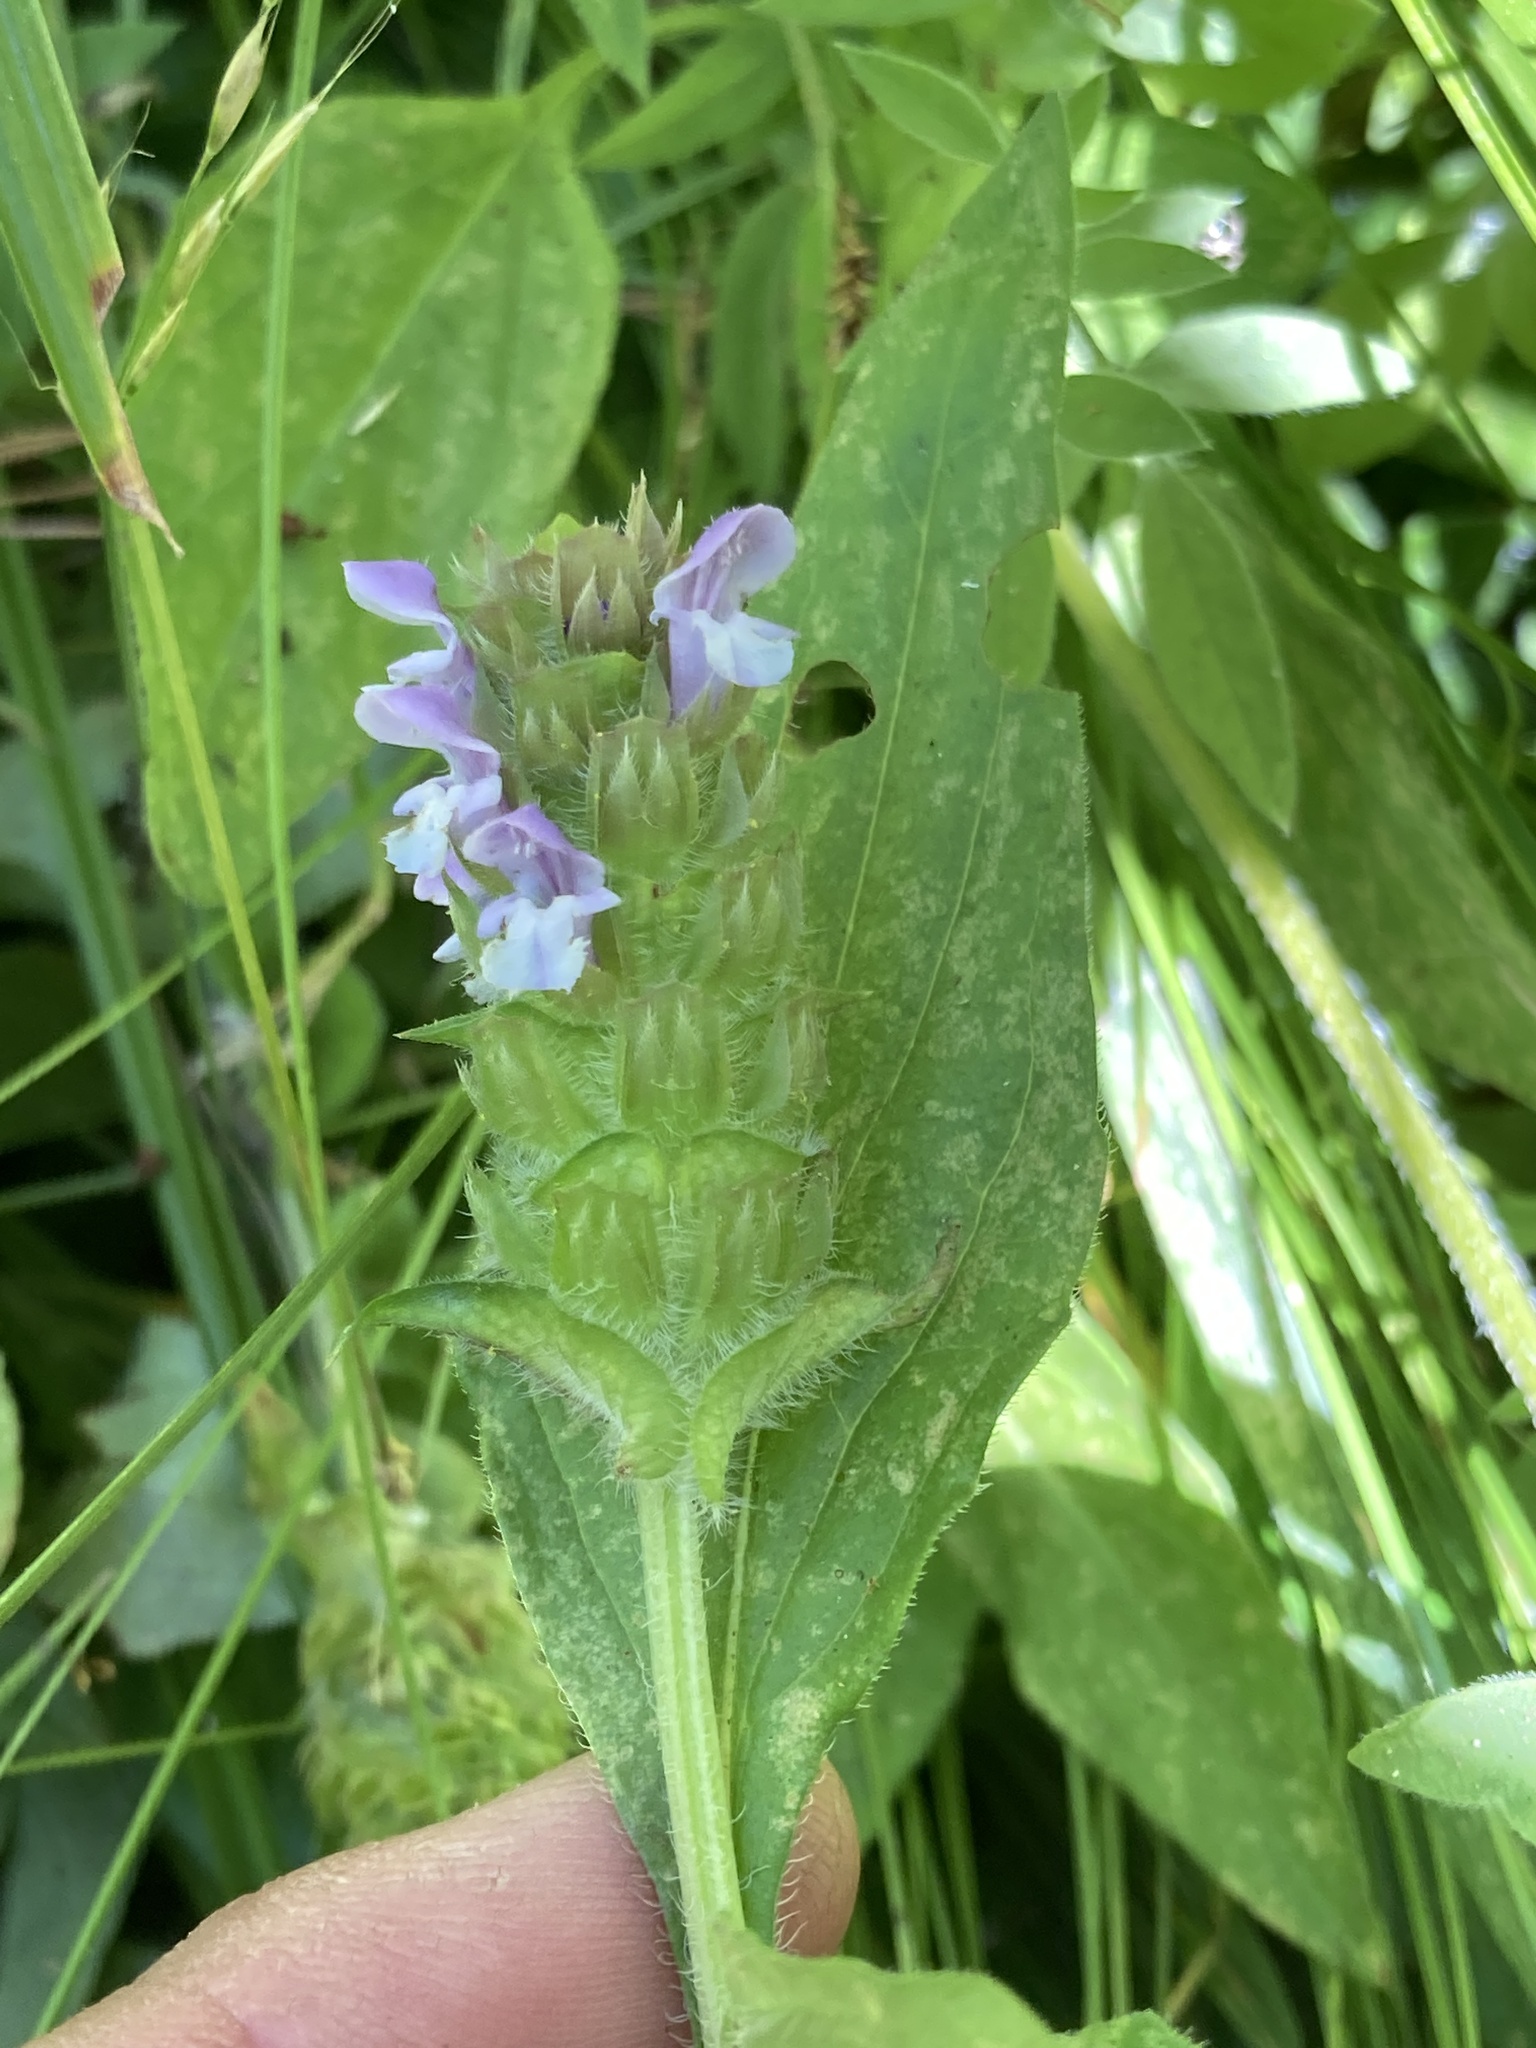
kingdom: Plantae
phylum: Tracheophyta
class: Magnoliopsida
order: Lamiales
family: Lamiaceae
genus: Prunella
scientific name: Prunella vulgaris
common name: Heal-all
